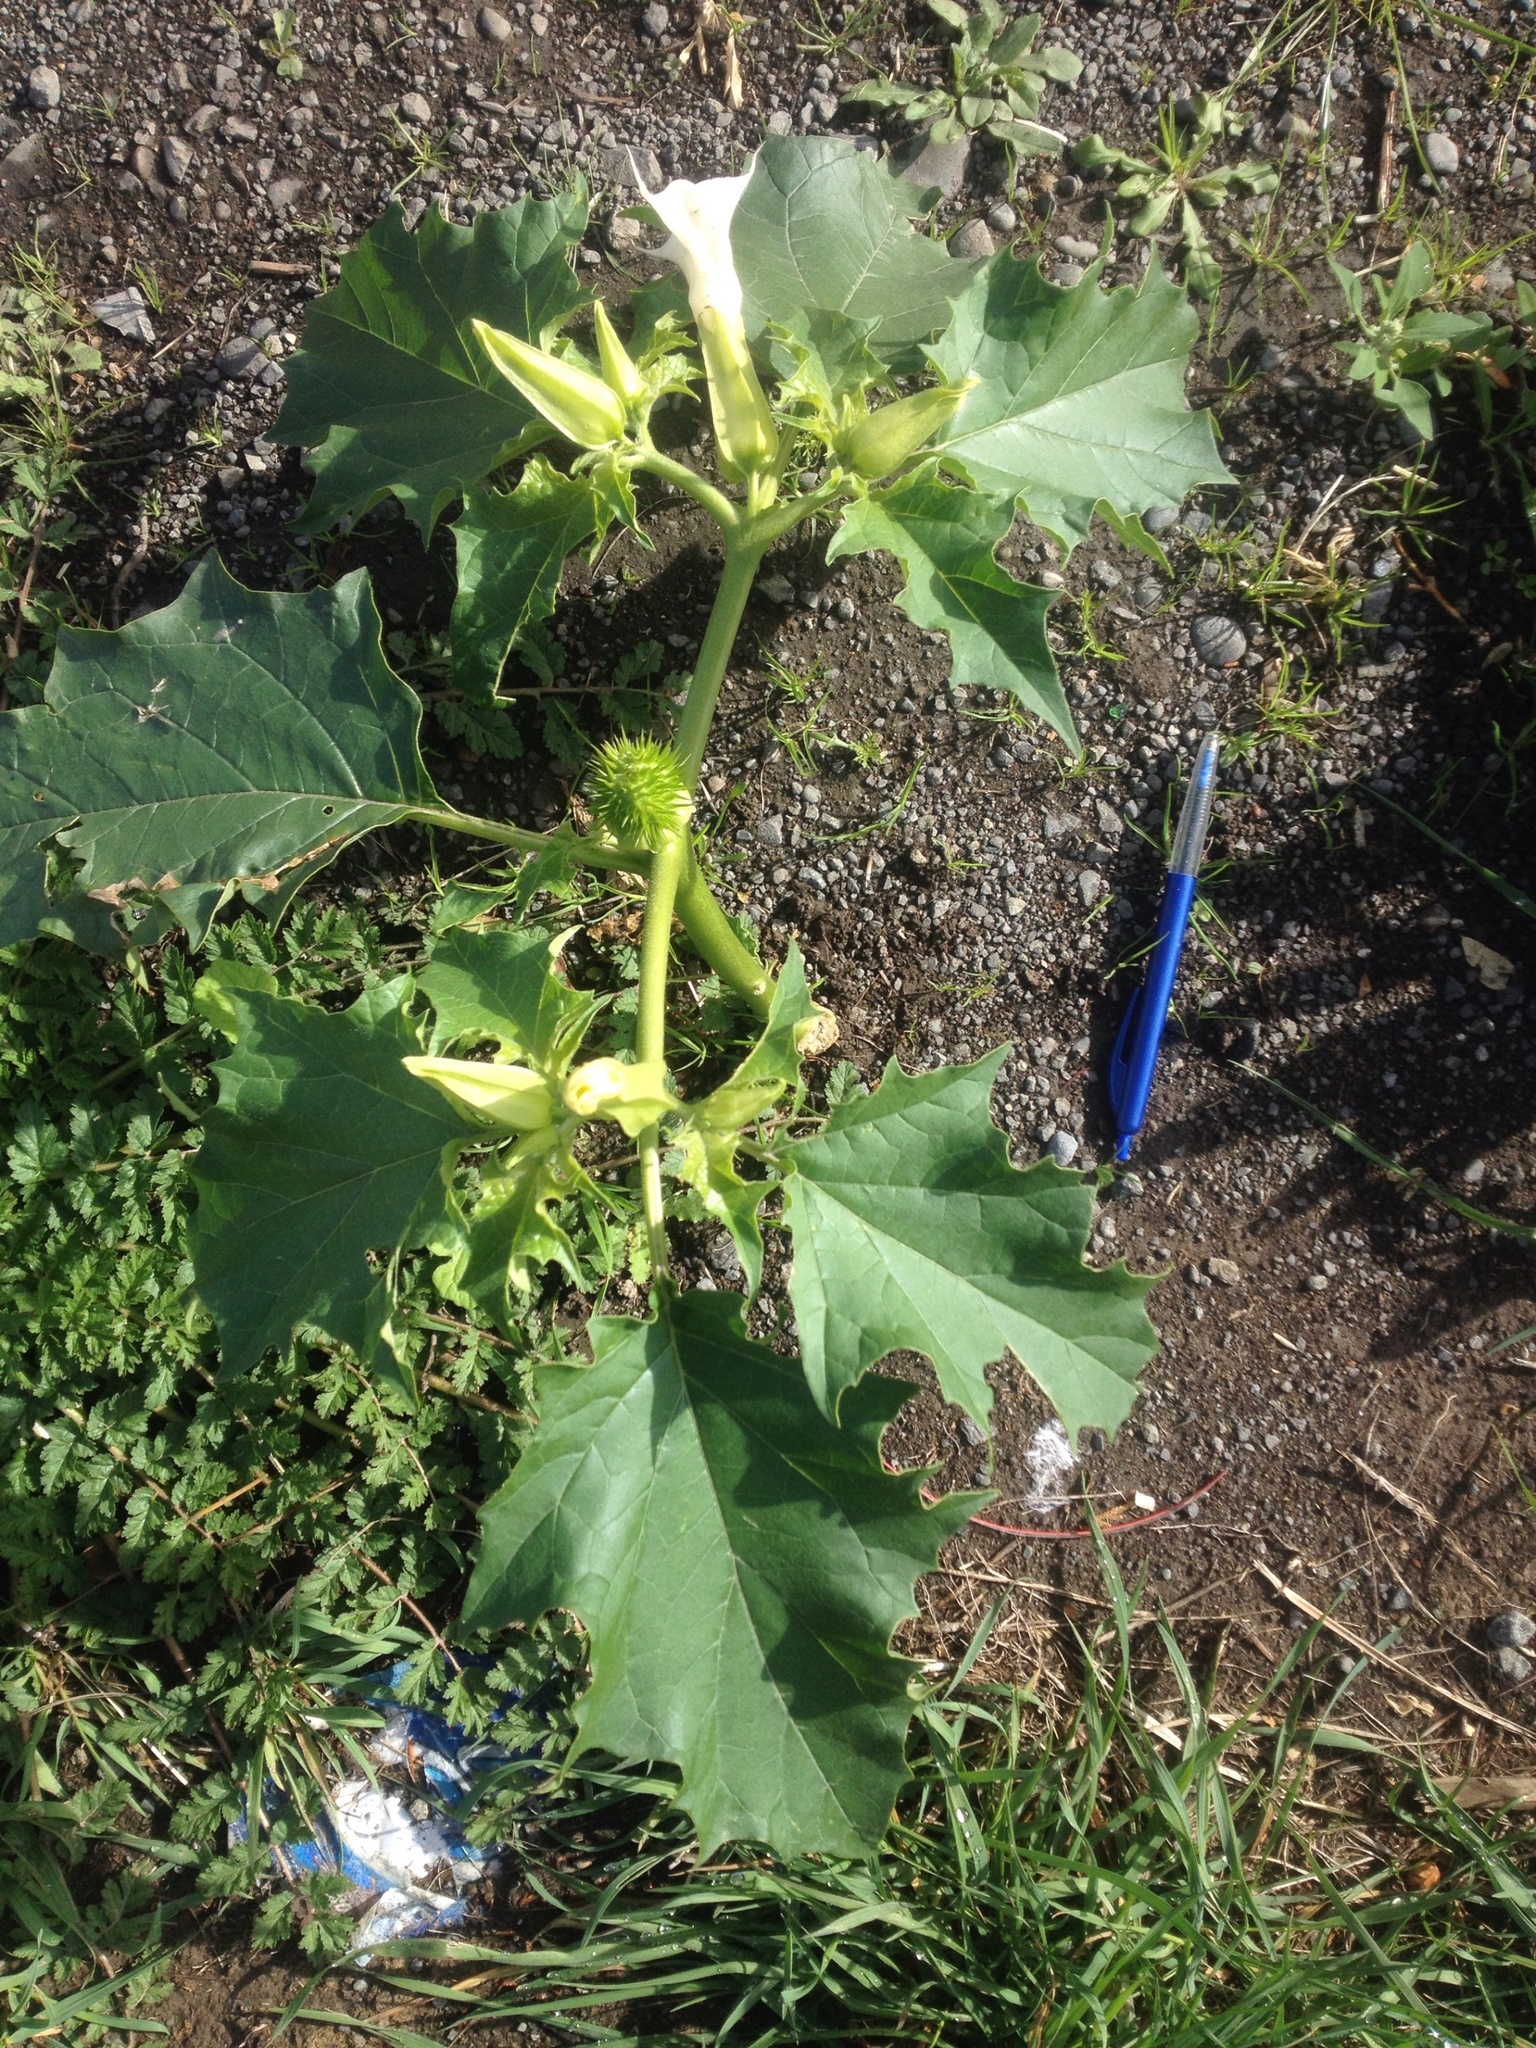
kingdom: Plantae
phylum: Tracheophyta
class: Magnoliopsida
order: Solanales
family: Solanaceae
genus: Datura
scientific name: Datura stramonium
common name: Thorn-apple
